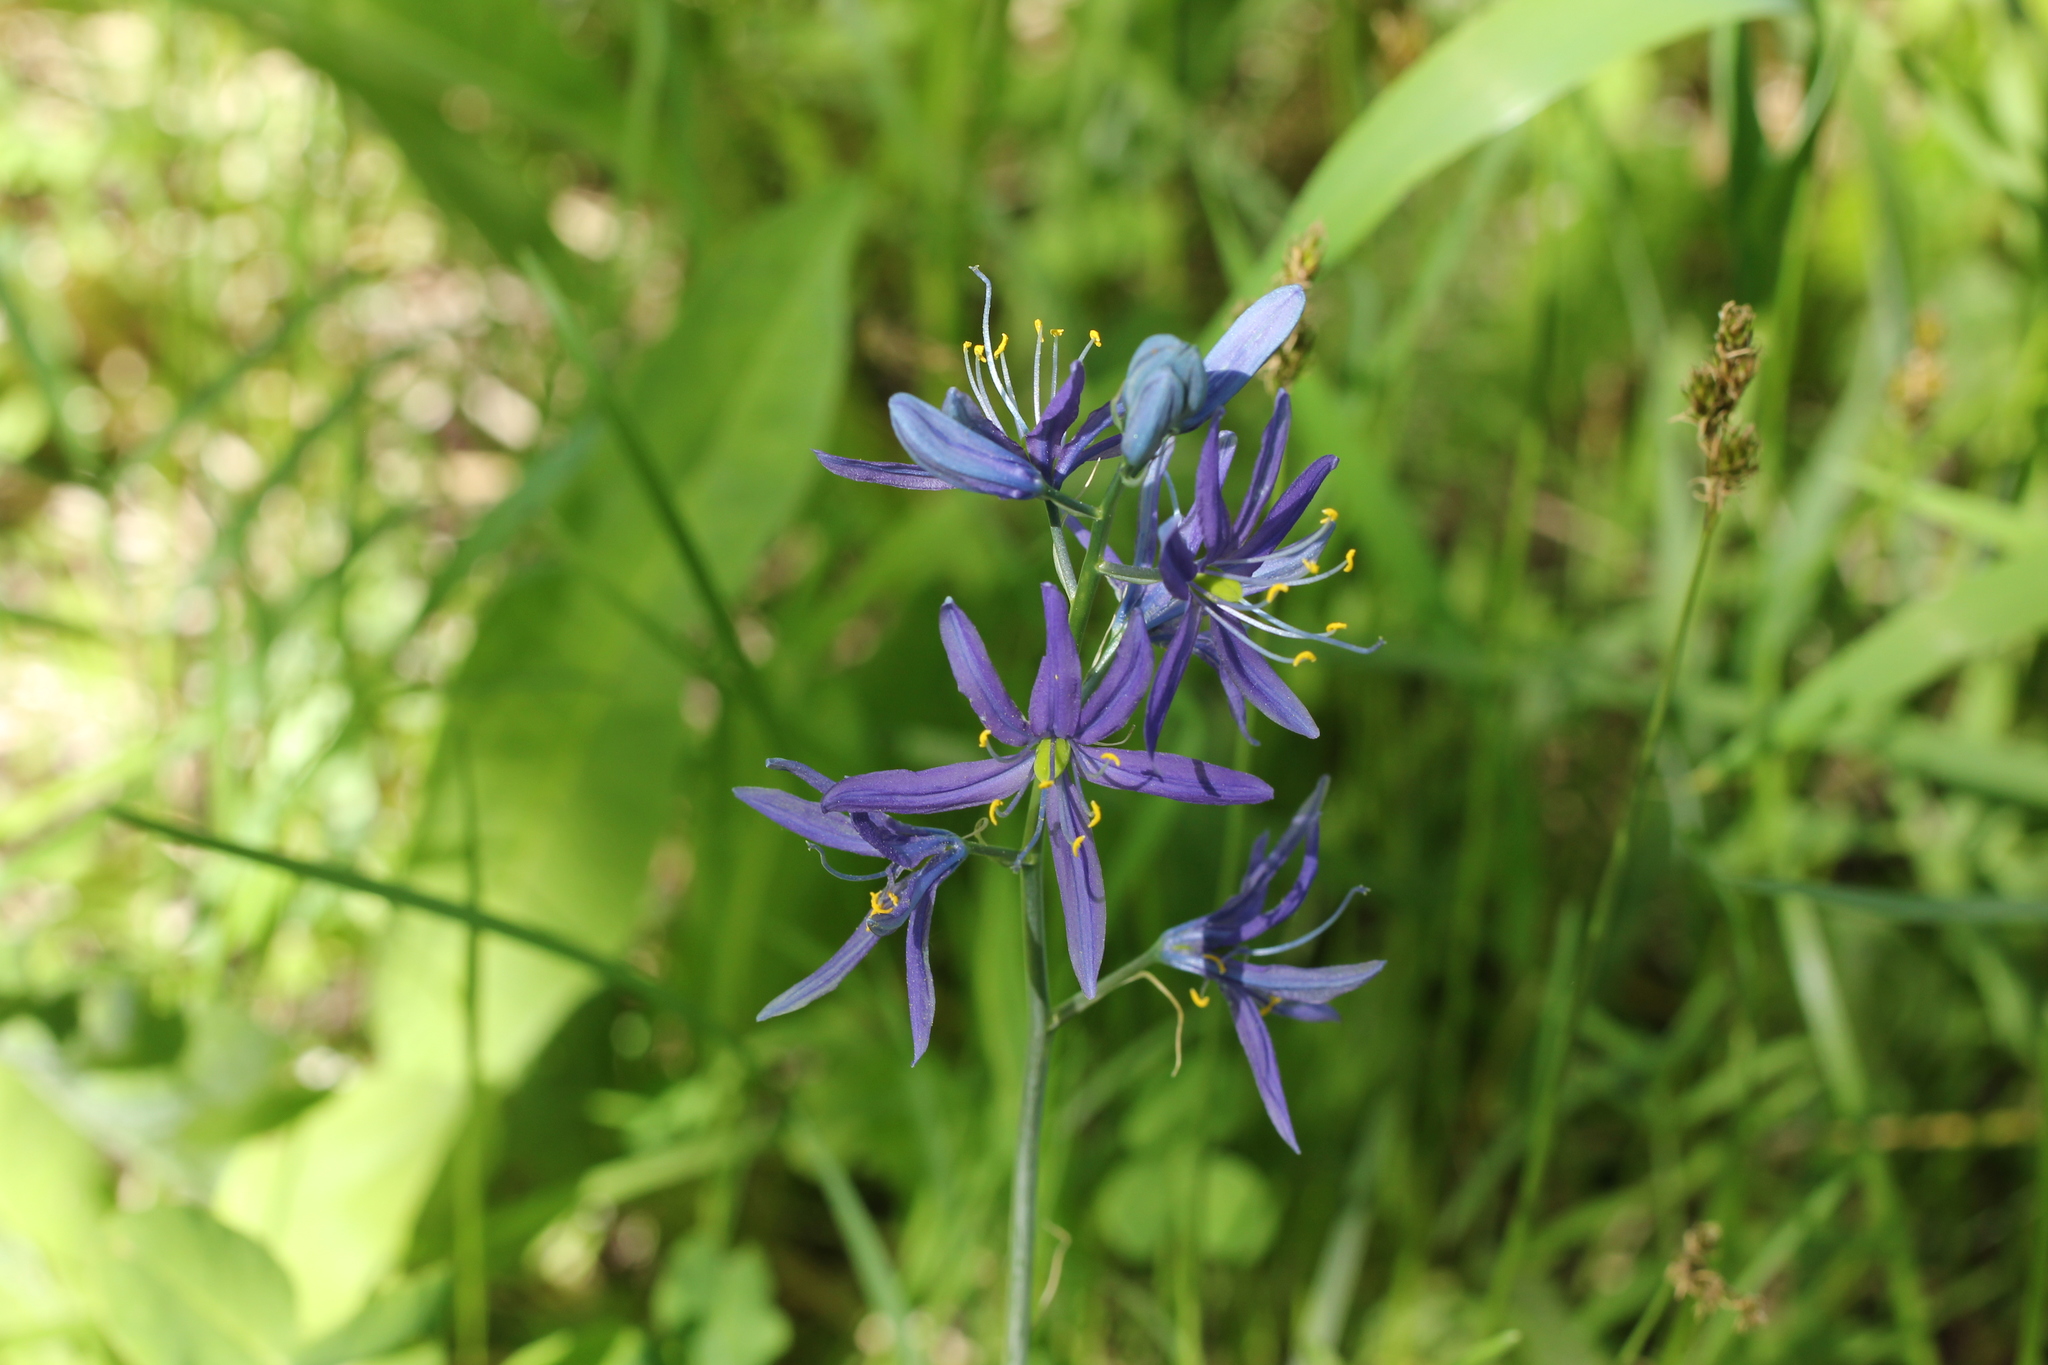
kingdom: Plantae
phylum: Tracheophyta
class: Liliopsida
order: Asparagales
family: Asparagaceae
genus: Camassia
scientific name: Camassia quamash
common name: Common camas
